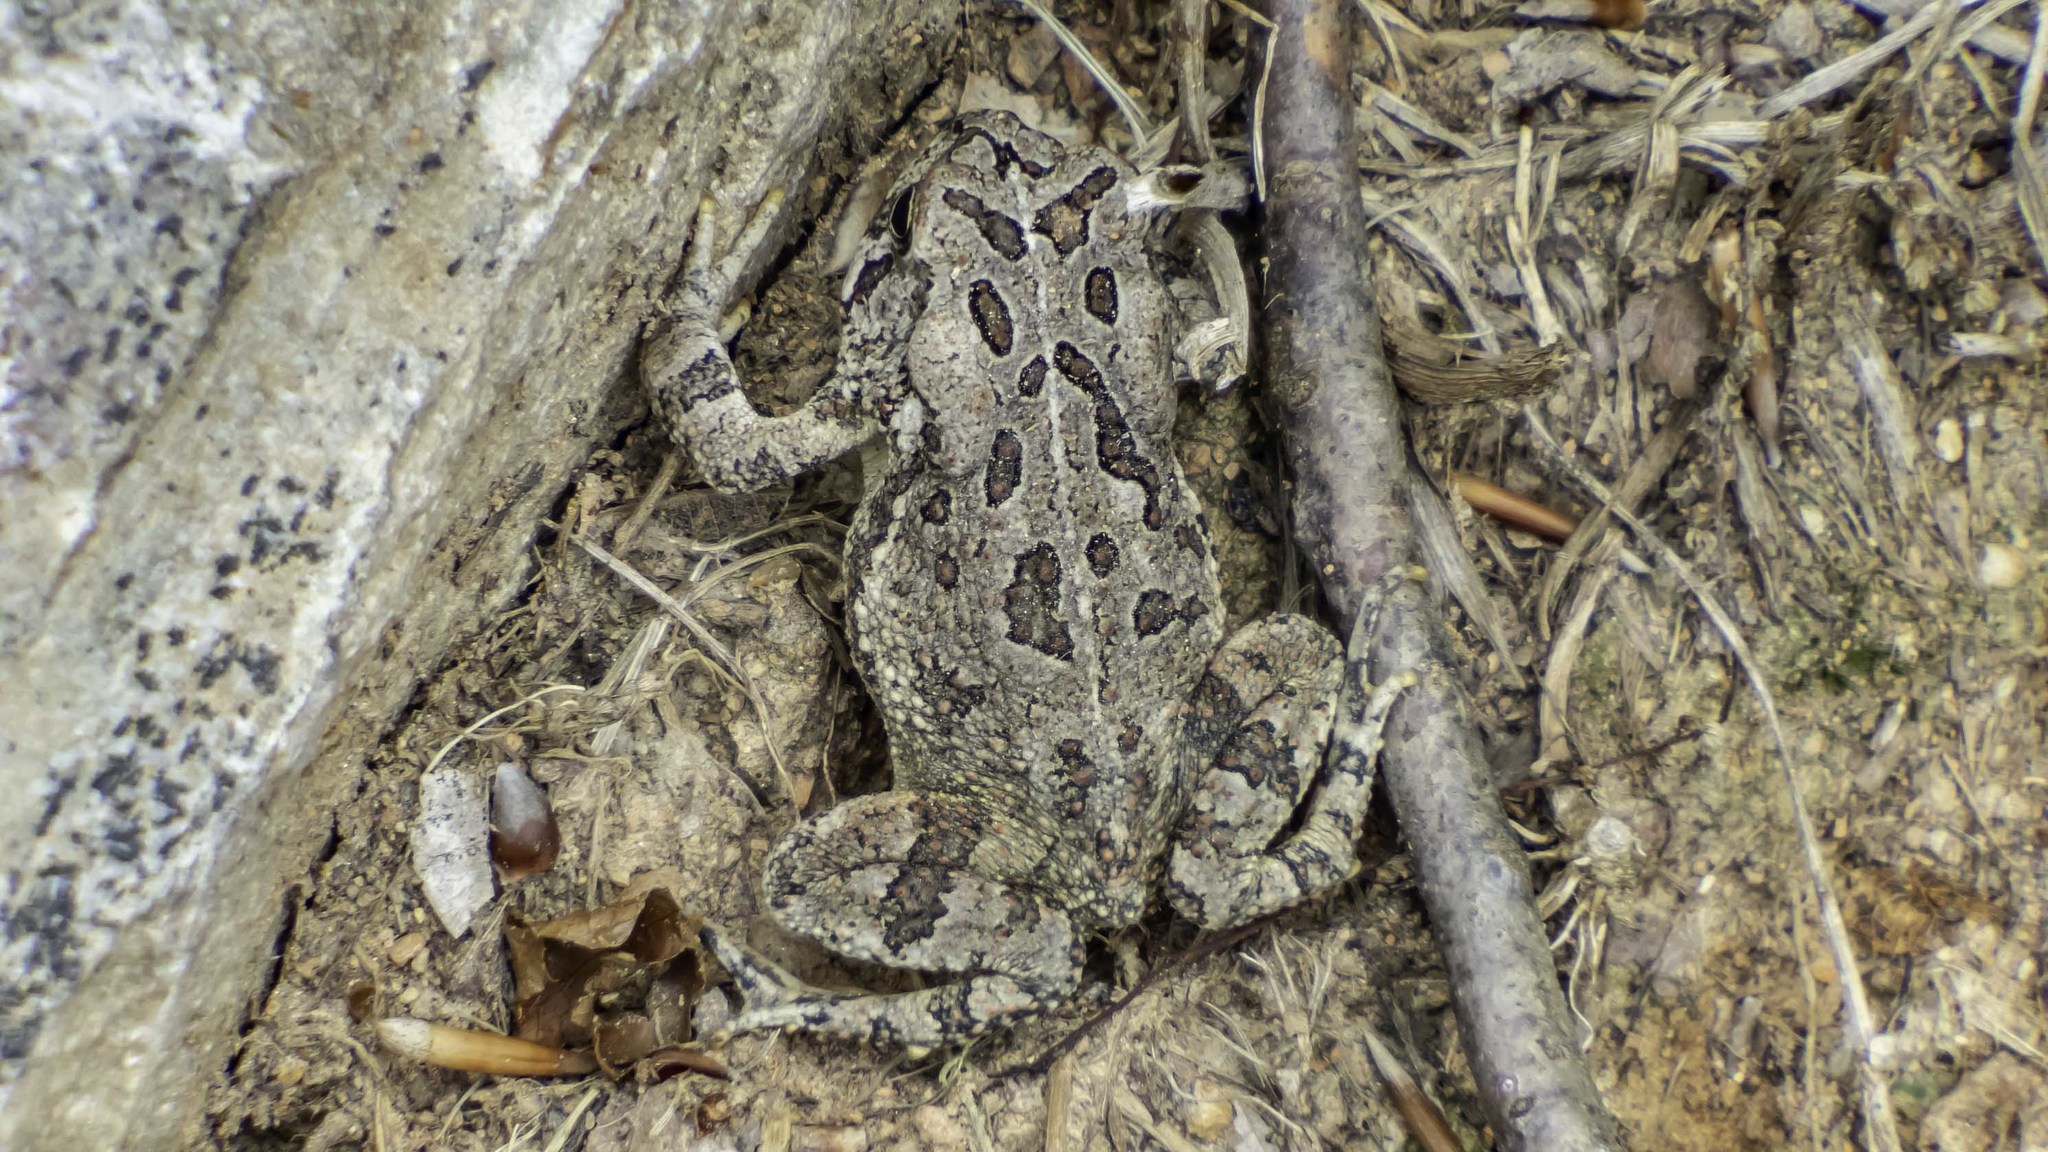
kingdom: Animalia
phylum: Chordata
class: Amphibia
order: Anura
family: Bufonidae
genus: Anaxyrus
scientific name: Anaxyrus fowleri
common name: Fowler's toad
